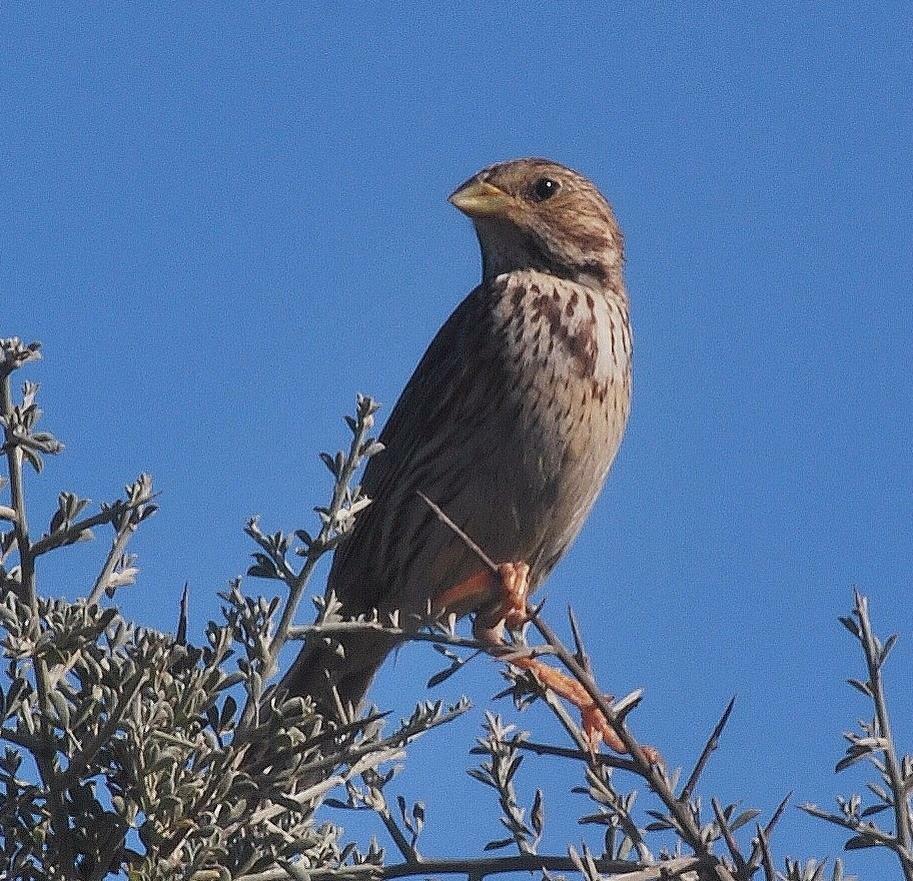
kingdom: Animalia
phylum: Chordata
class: Aves
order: Passeriformes
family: Emberizidae
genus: Emberiza
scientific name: Emberiza calandra
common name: Corn bunting
